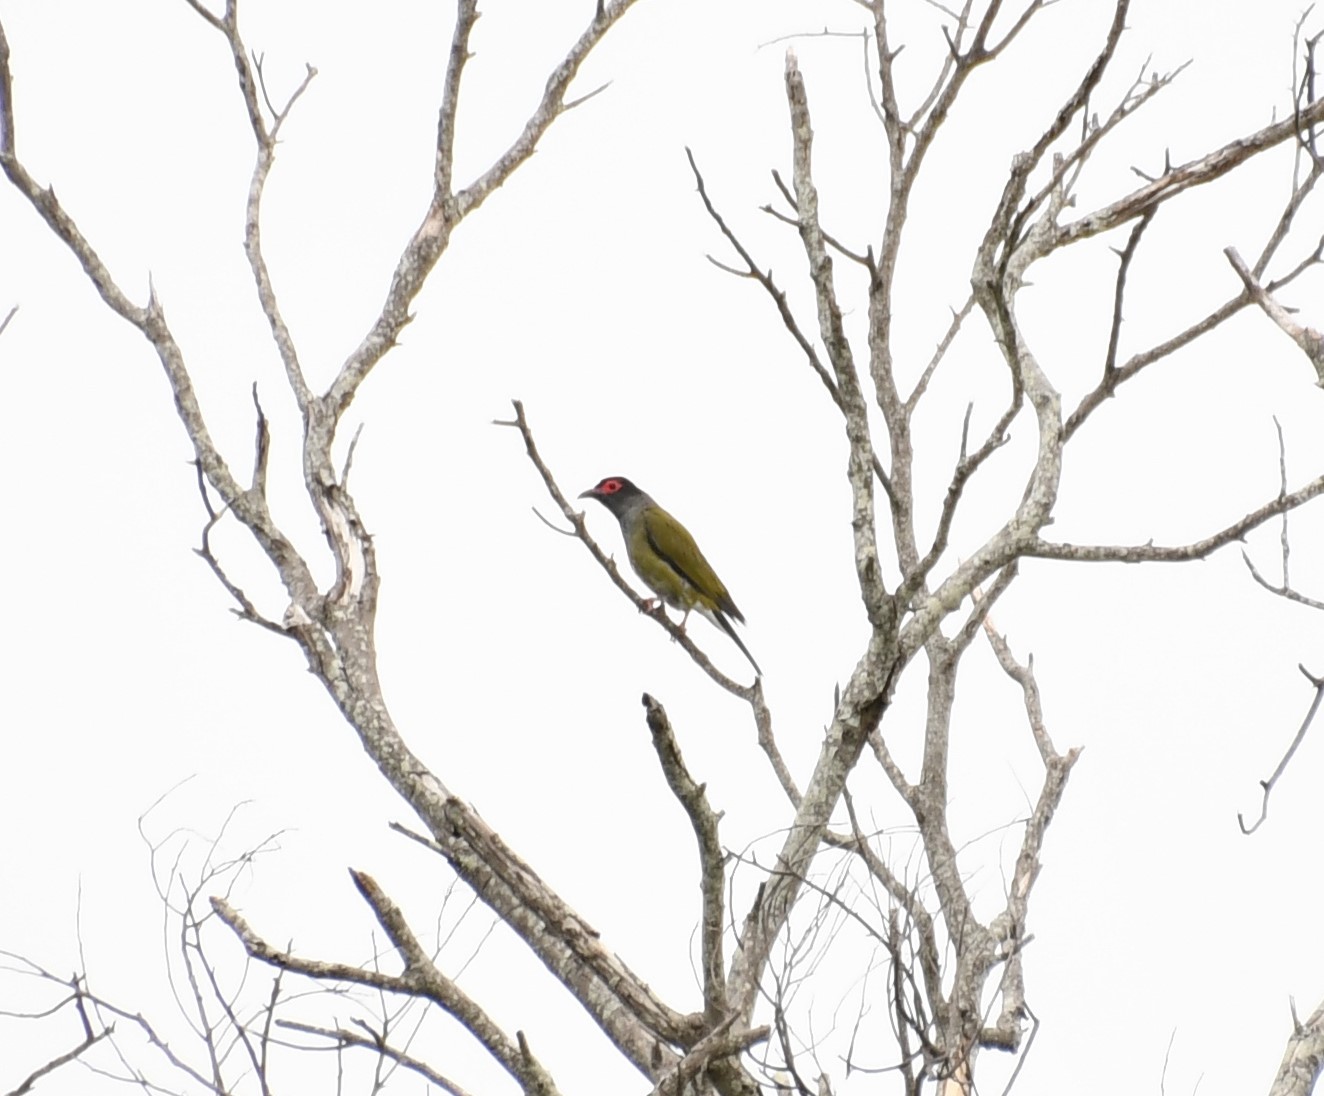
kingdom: Animalia
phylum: Chordata
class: Aves
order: Passeriformes
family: Oriolidae
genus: Sphecotheres
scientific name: Sphecotheres vieilloti
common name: Australasian figbird
